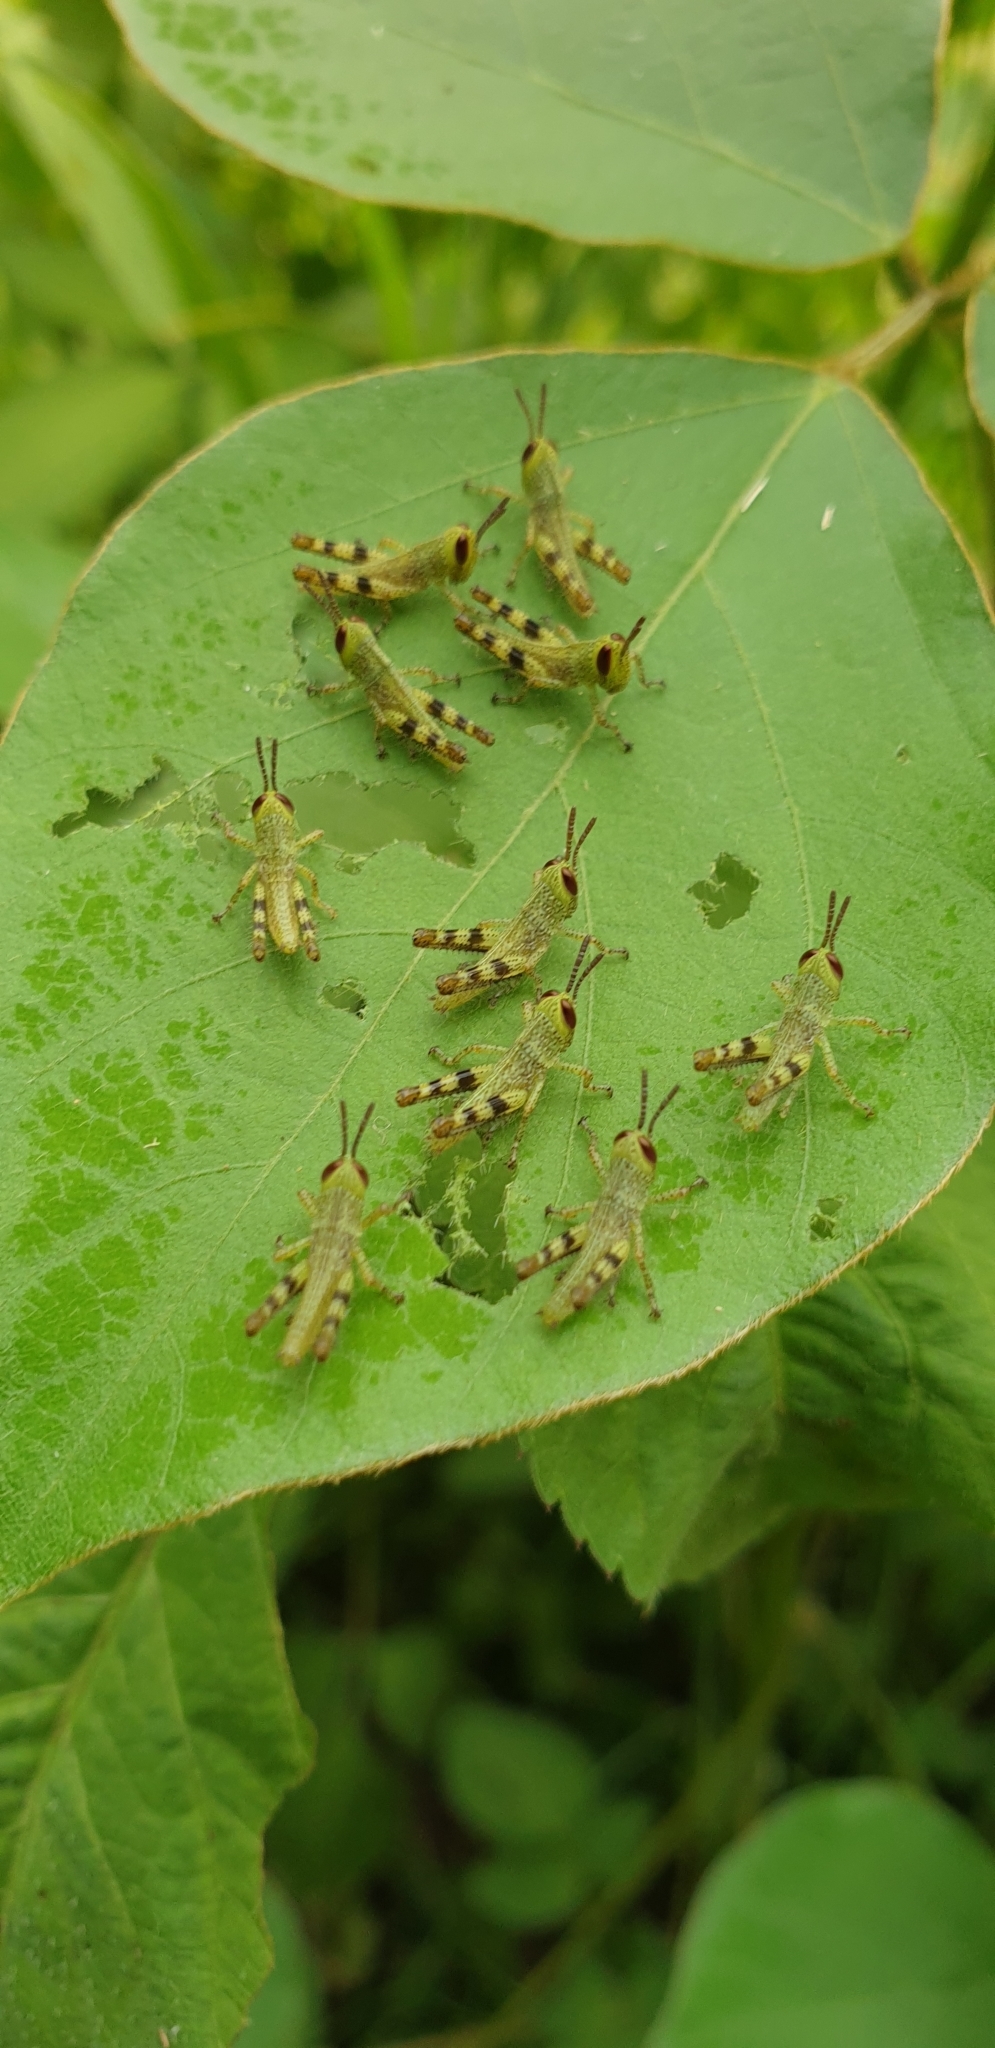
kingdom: Animalia
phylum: Arthropoda
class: Insecta
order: Orthoptera
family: Acrididae
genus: Valanga
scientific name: Valanga irregularis
